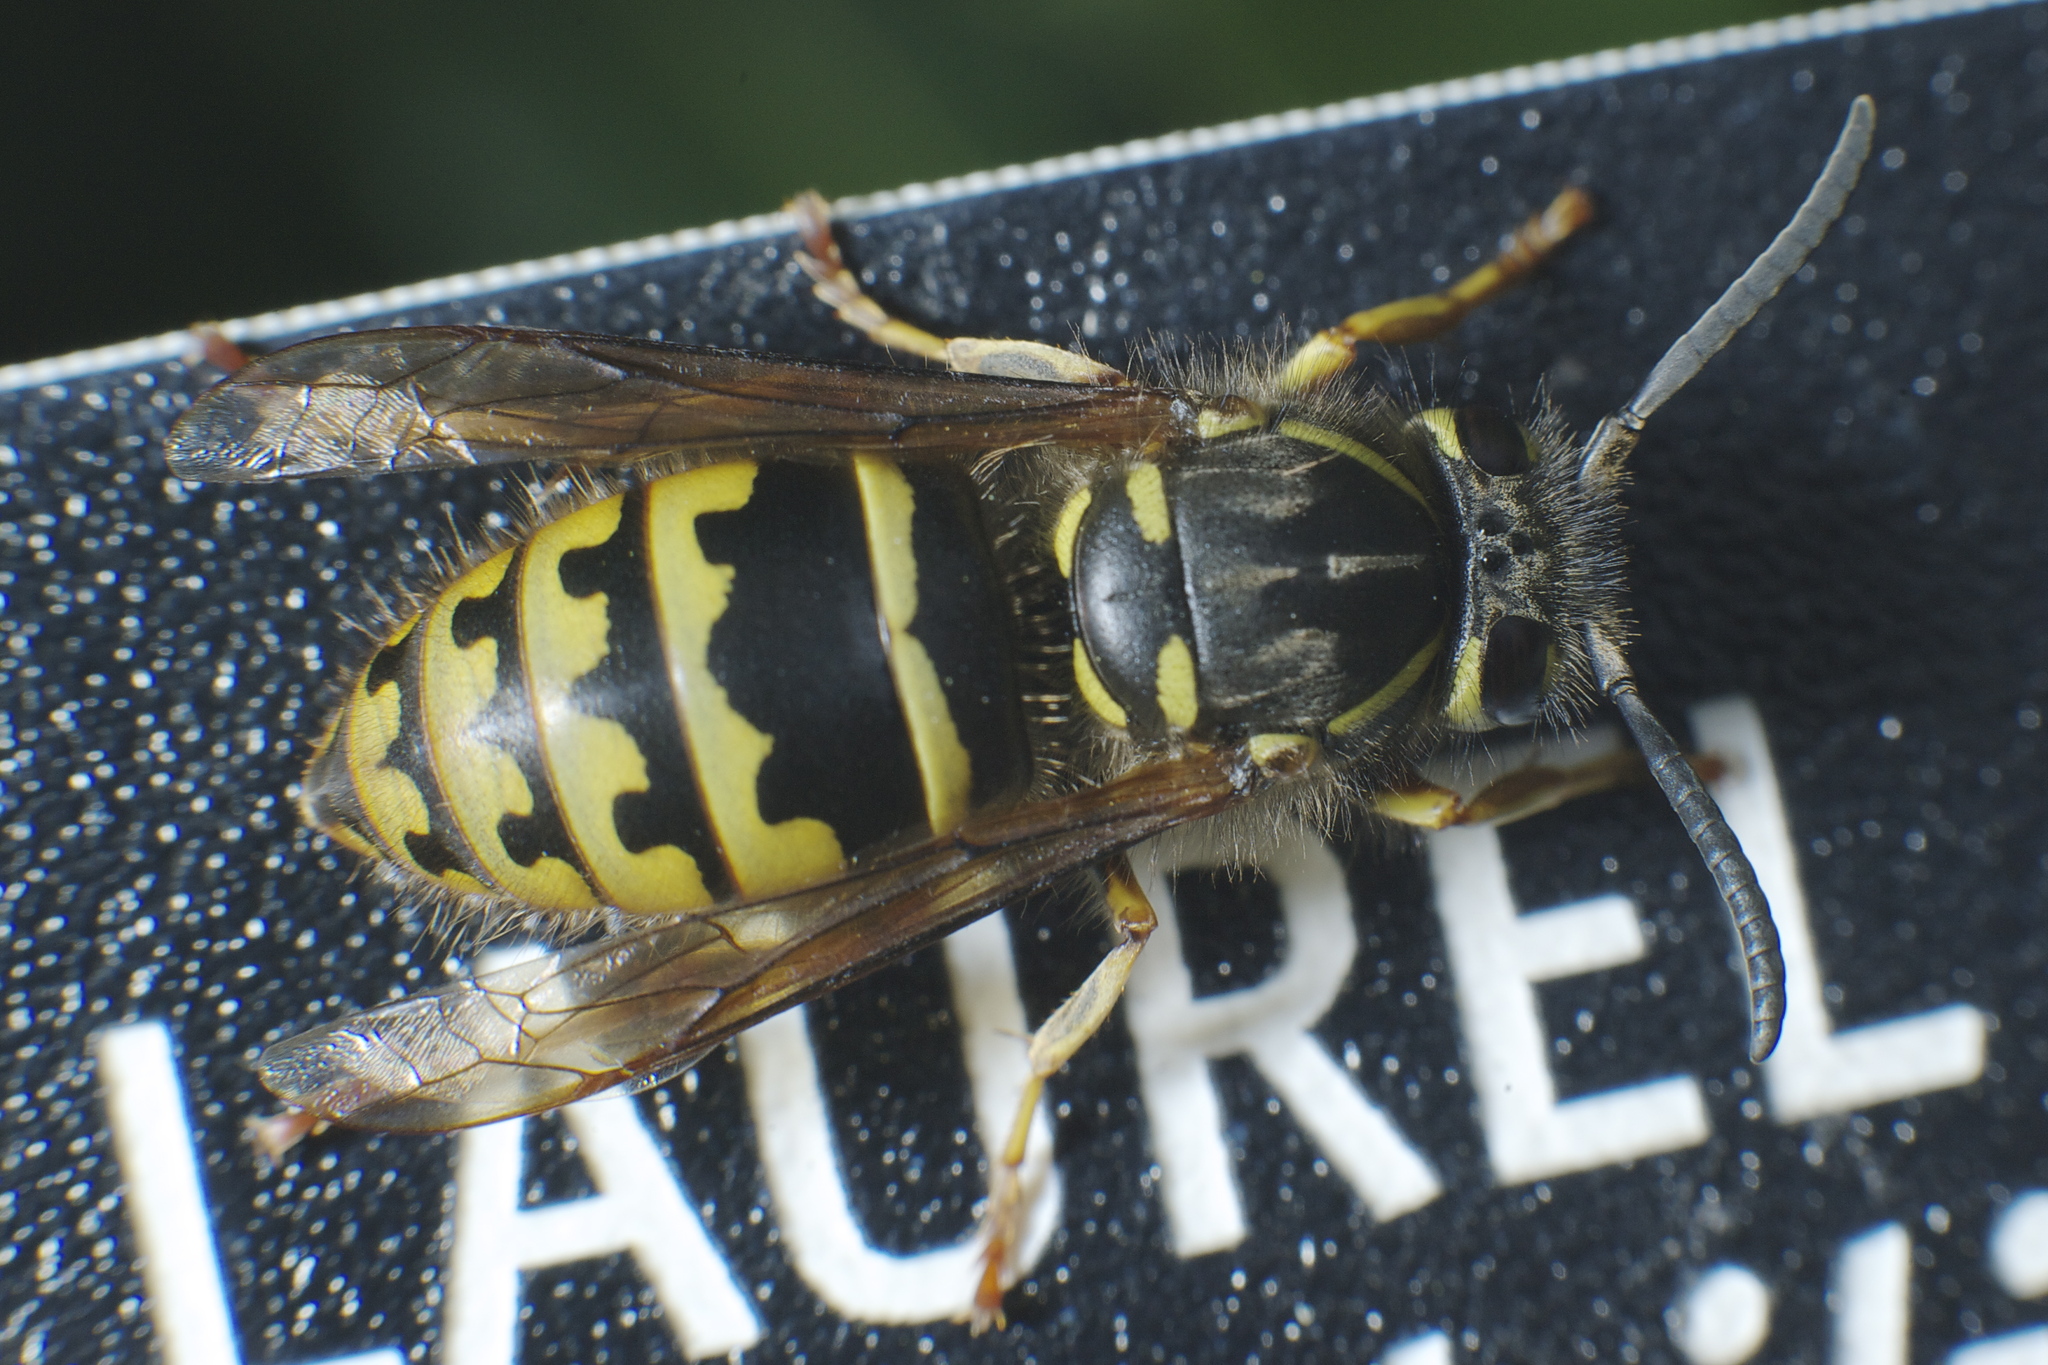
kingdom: Animalia
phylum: Arthropoda
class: Insecta
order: Hymenoptera
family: Vespidae
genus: Vespula
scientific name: Vespula alascensis
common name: Alaska yellowjacket
